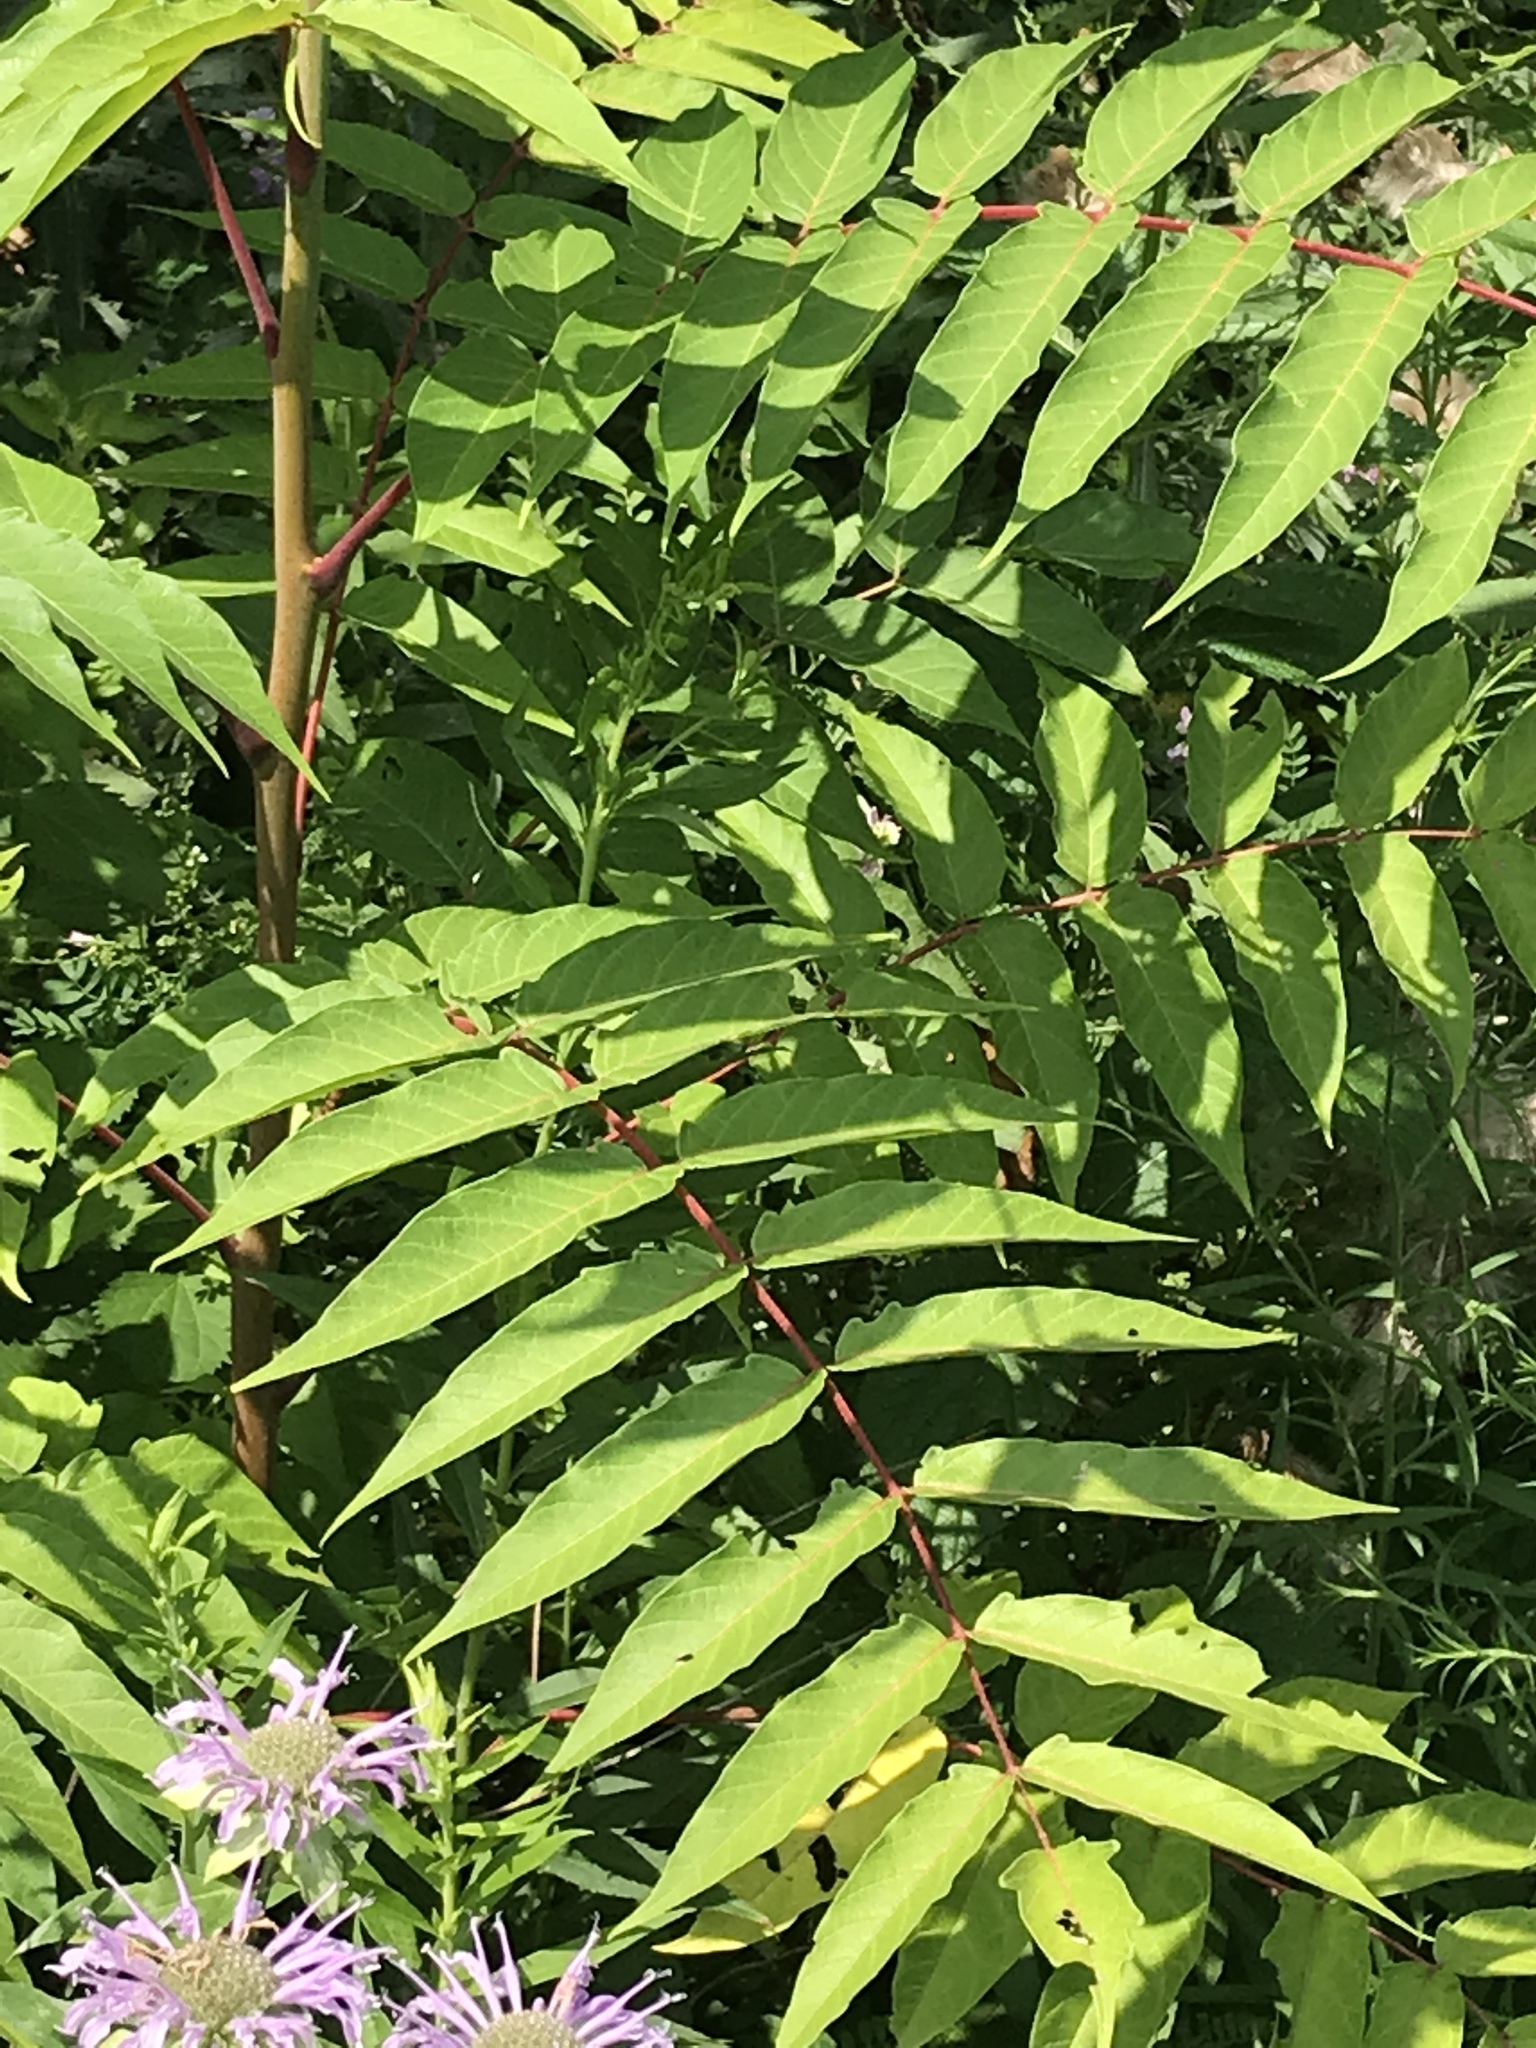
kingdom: Plantae
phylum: Tracheophyta
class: Magnoliopsida
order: Sapindales
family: Simaroubaceae
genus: Ailanthus
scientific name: Ailanthus altissima
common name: Tree-of-heaven
